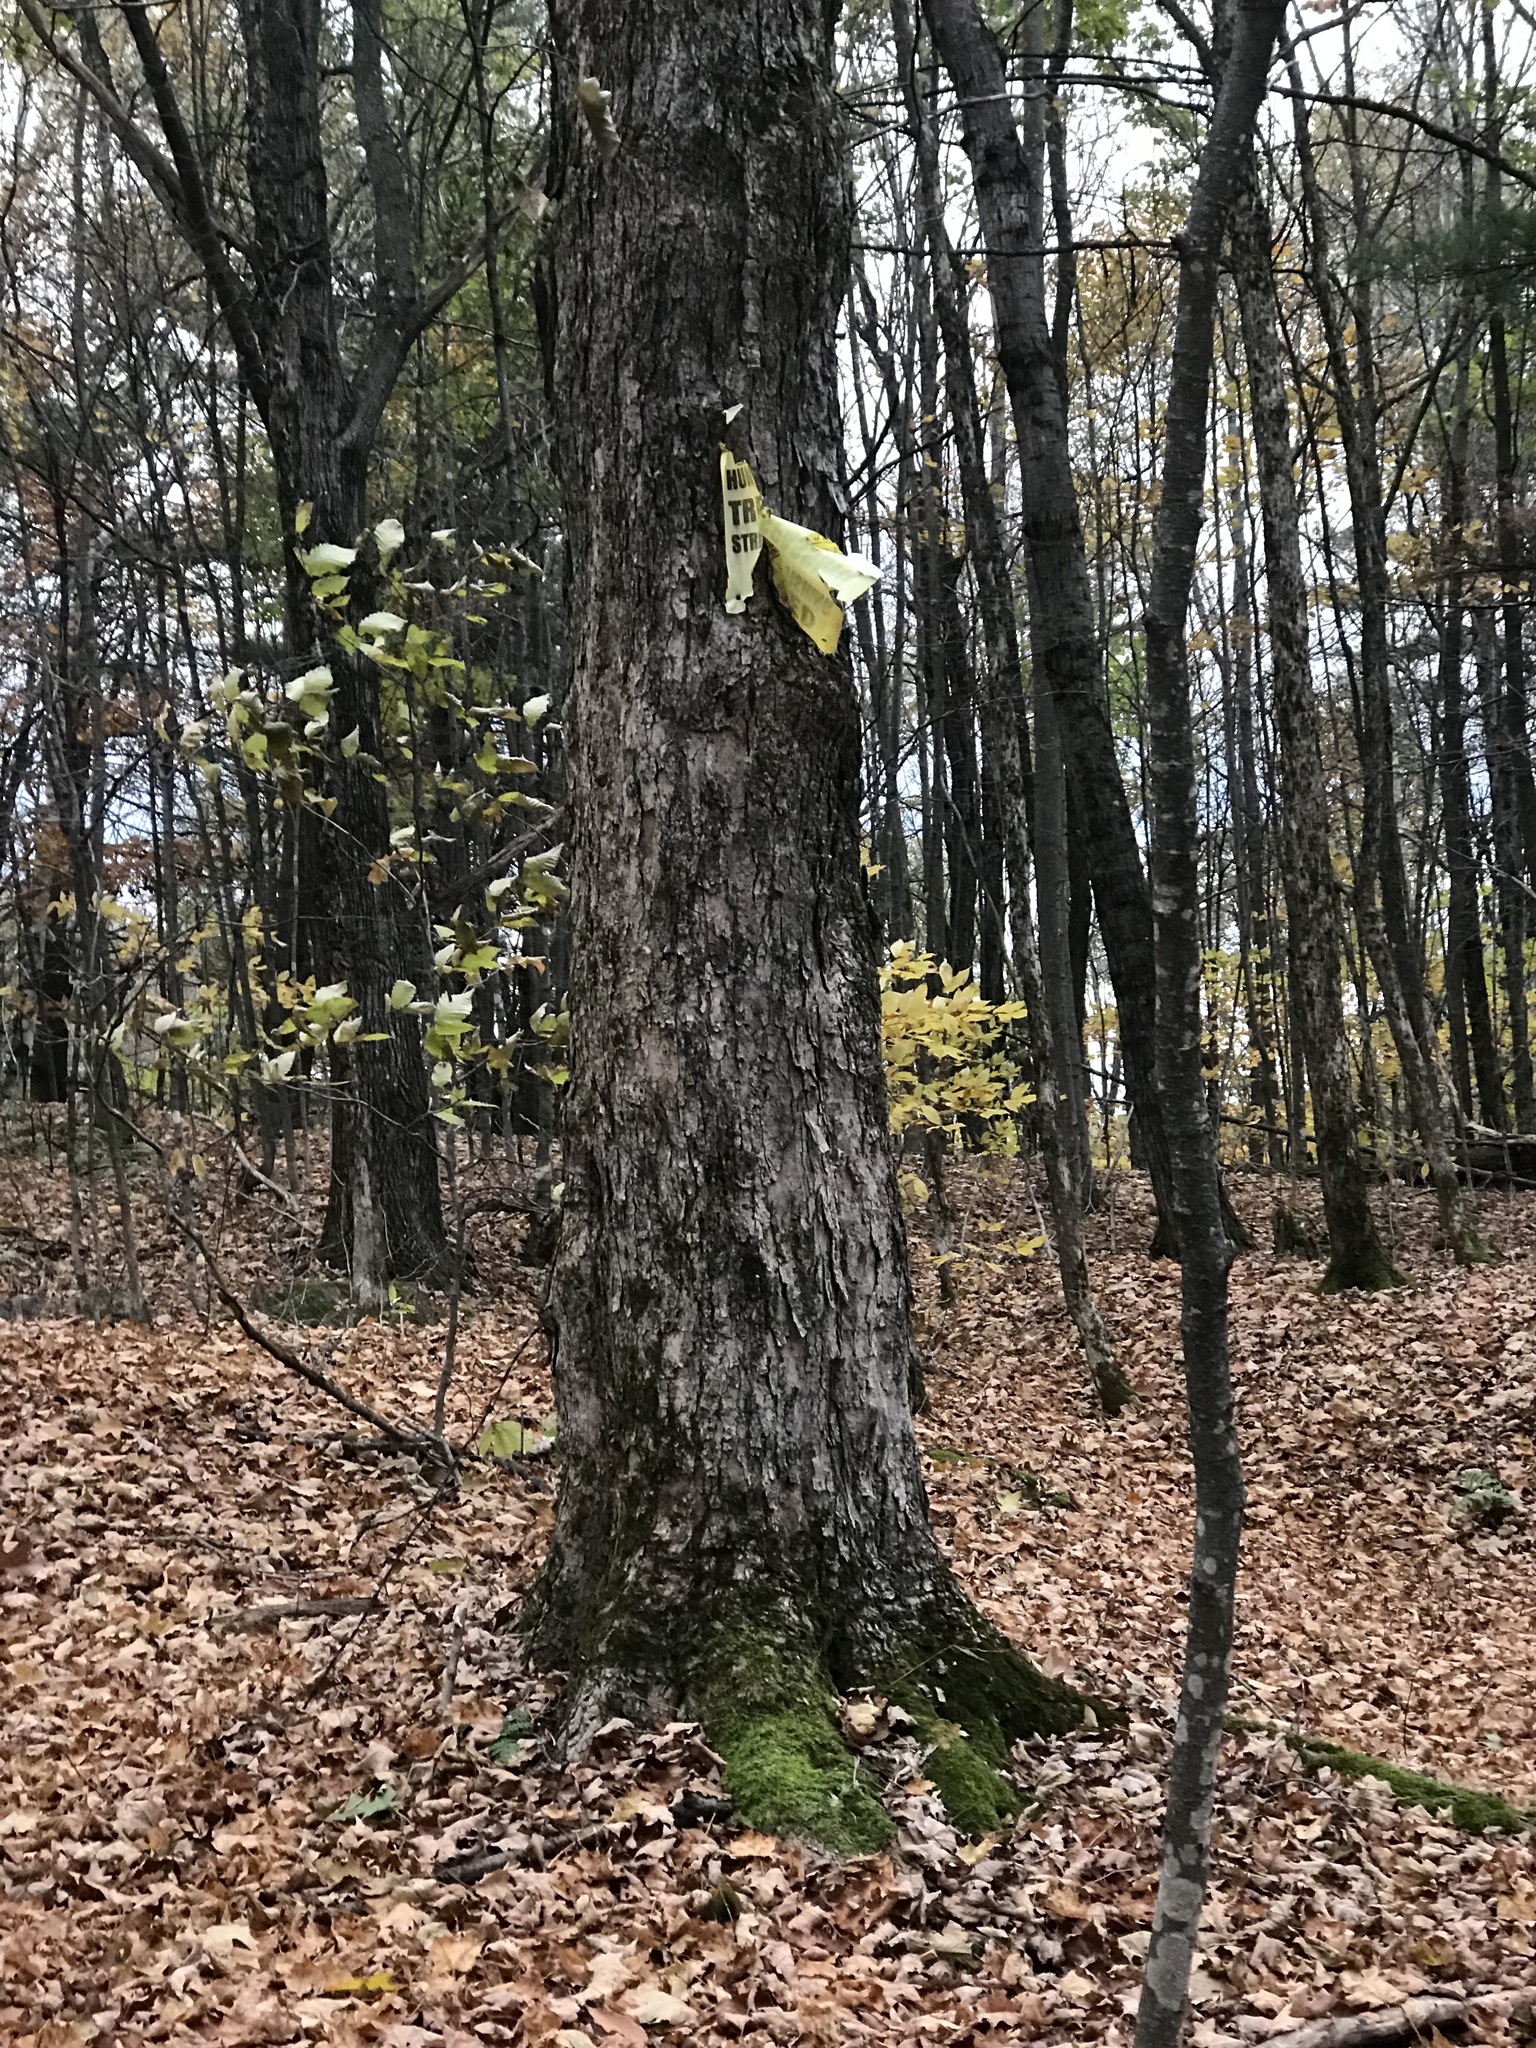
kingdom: Plantae
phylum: Tracheophyta
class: Magnoliopsida
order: Sapindales
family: Sapindaceae
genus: Acer
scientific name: Acer saccharum
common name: Sugar maple
